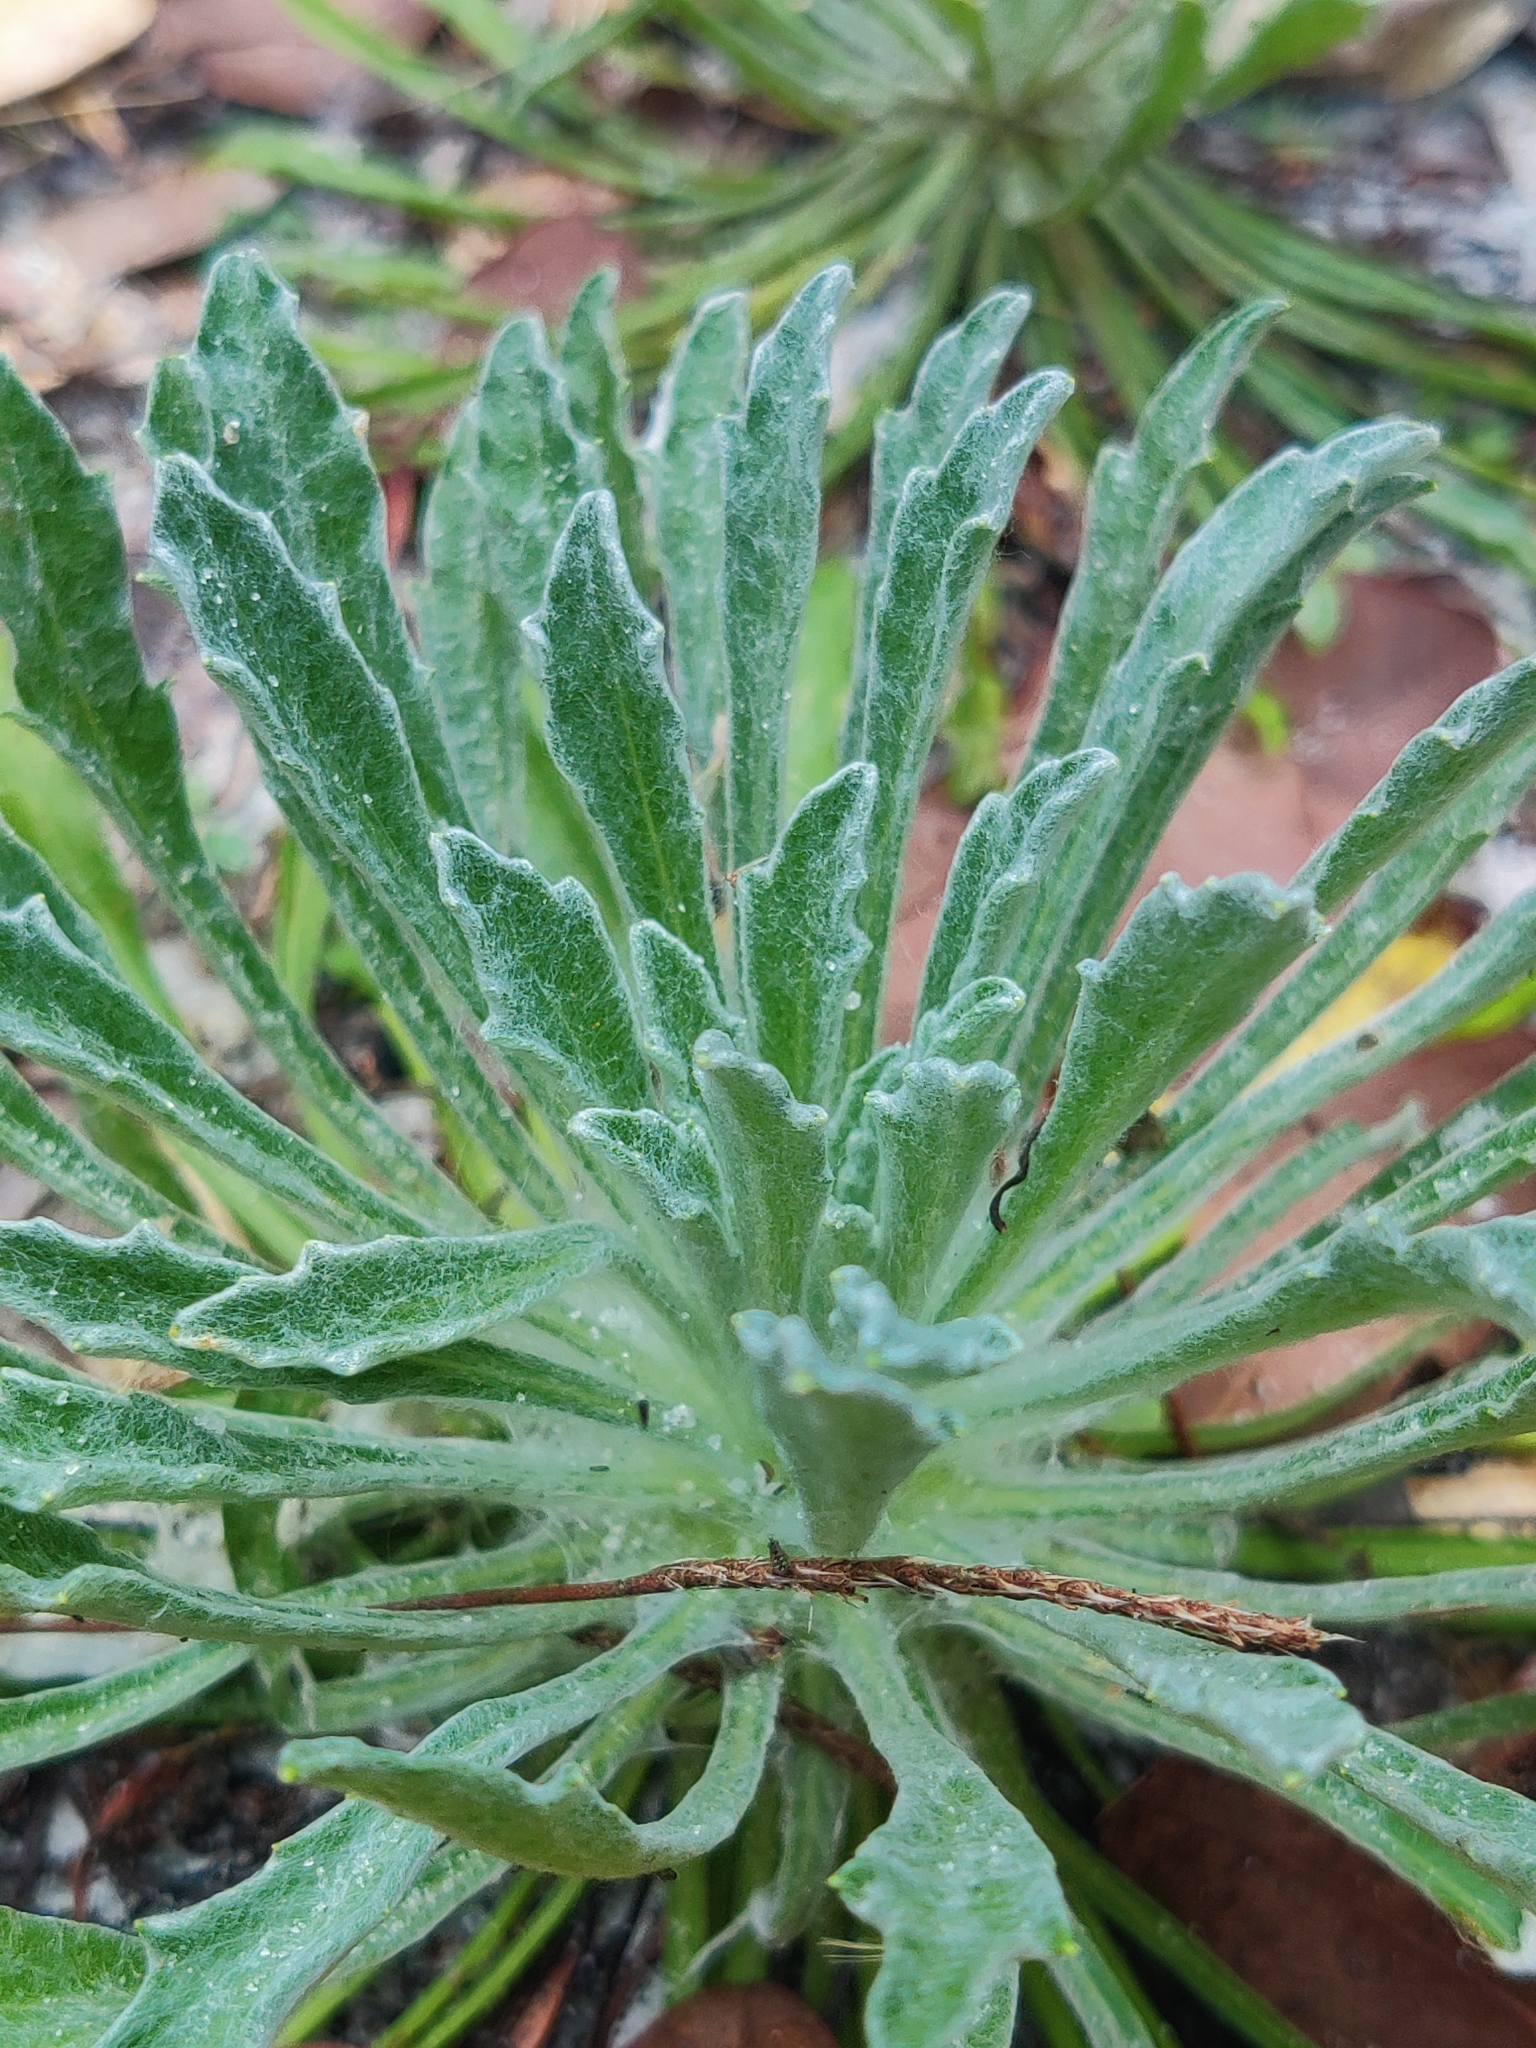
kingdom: Plantae
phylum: Tracheophyta
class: Magnoliopsida
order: Asterales
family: Asteraceae
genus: Chrysopsis
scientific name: Chrysopsis linearifolia
